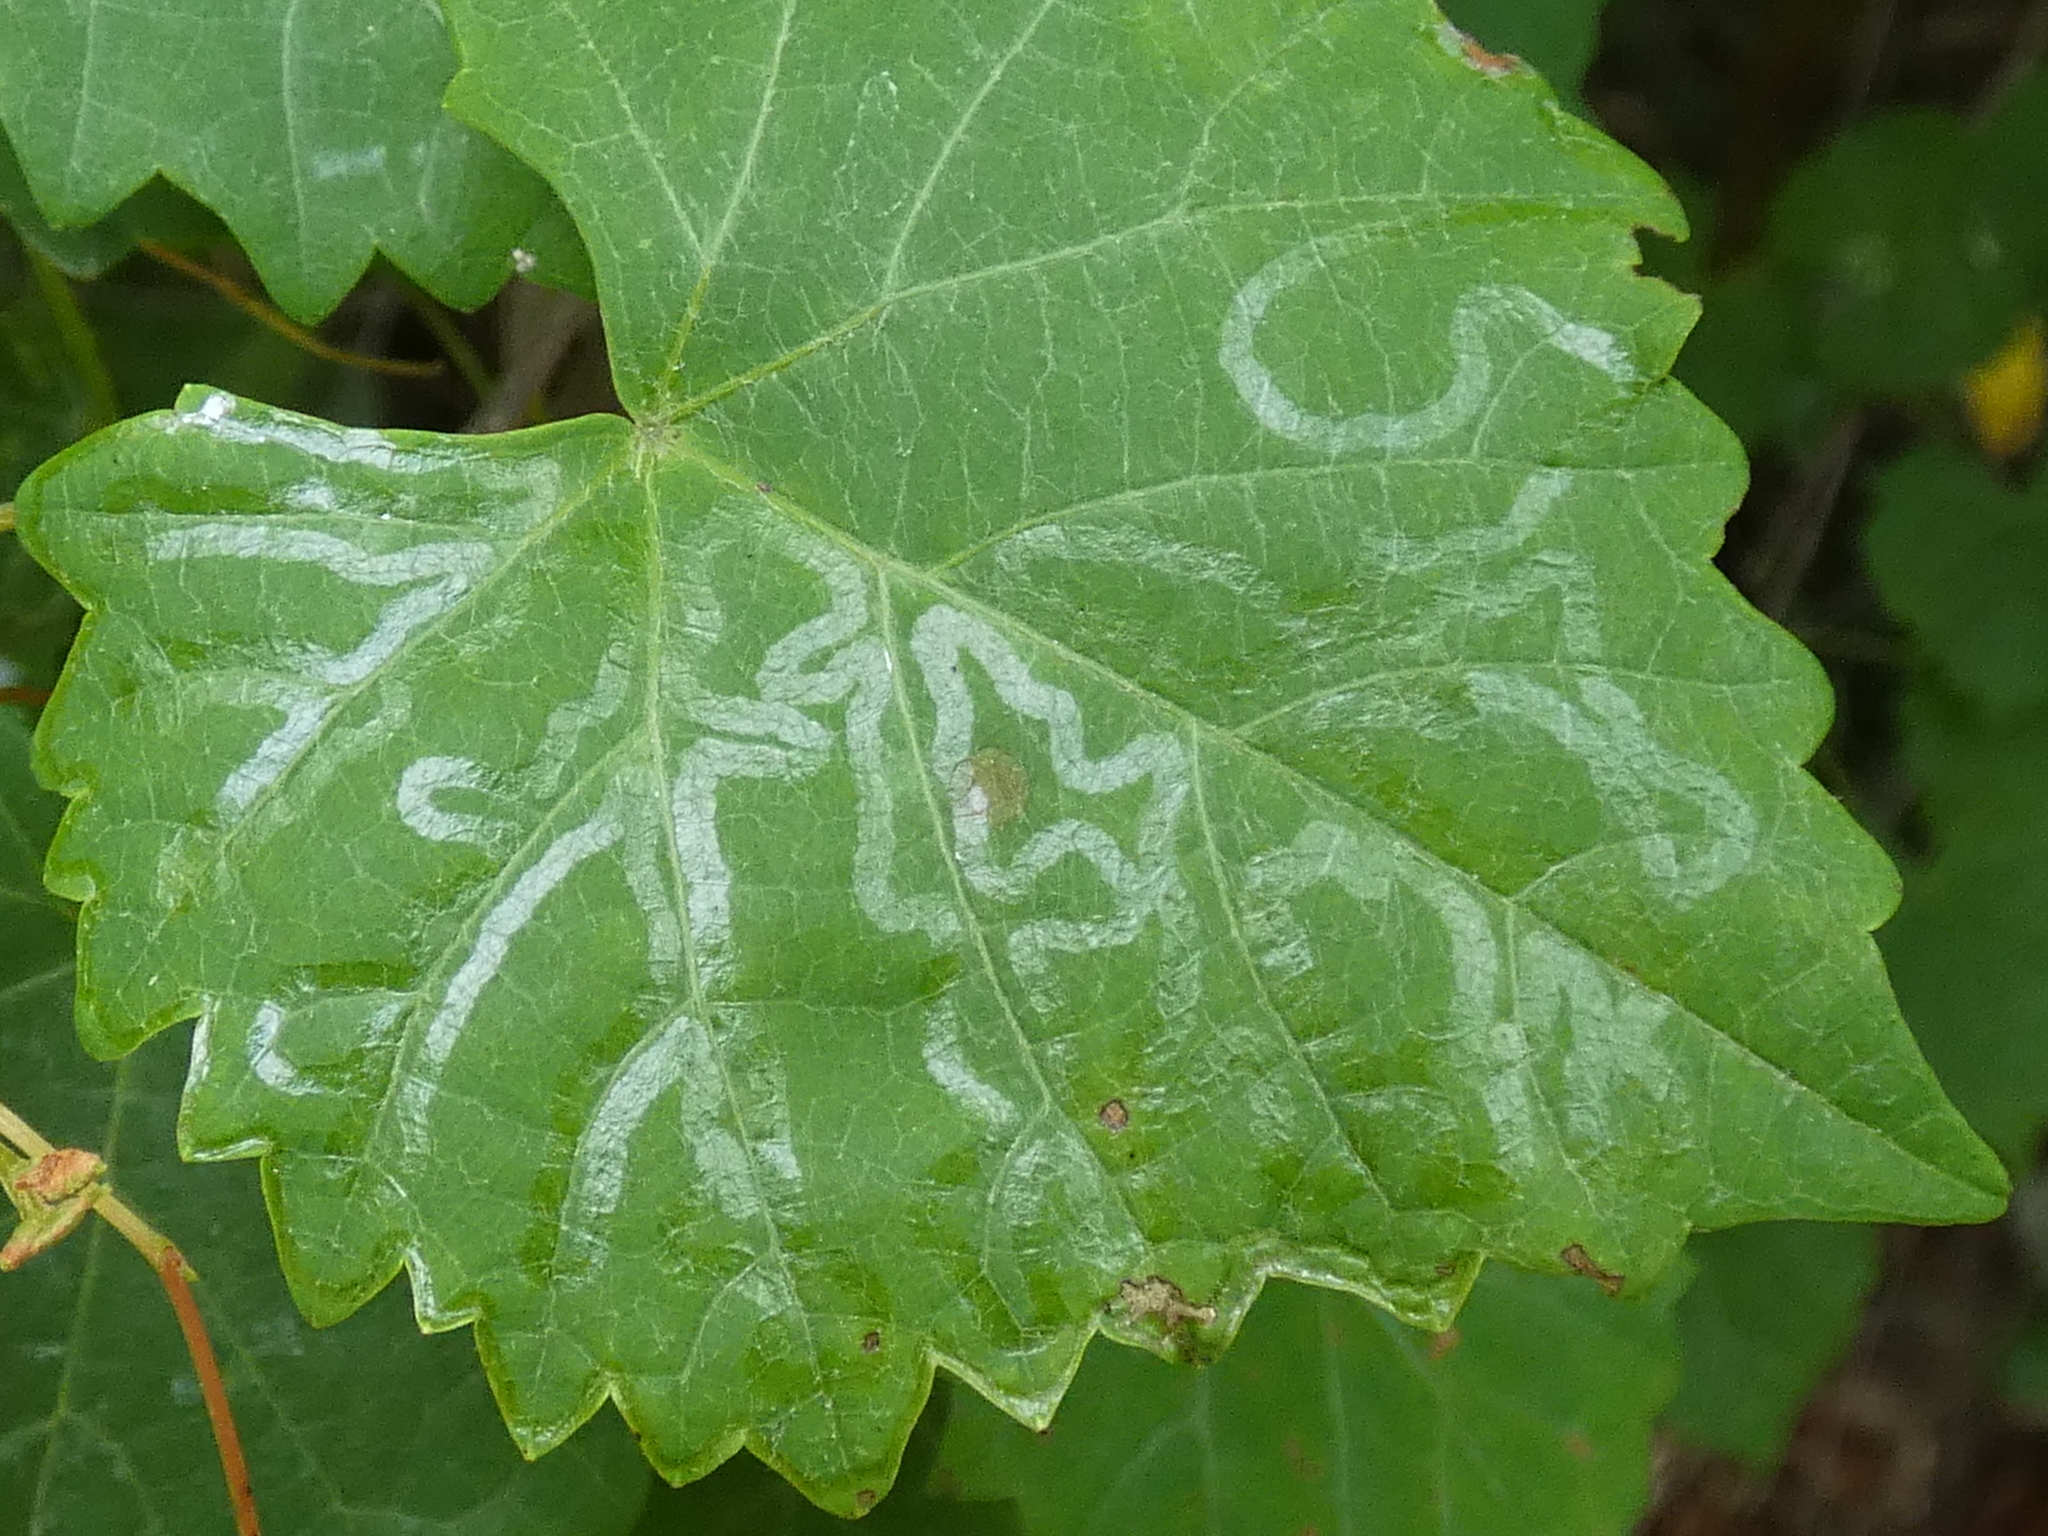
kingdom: Animalia
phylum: Arthropoda
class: Insecta
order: Lepidoptera
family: Gracillariidae
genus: Phyllocnistis
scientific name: Phyllocnistis vitegenella
